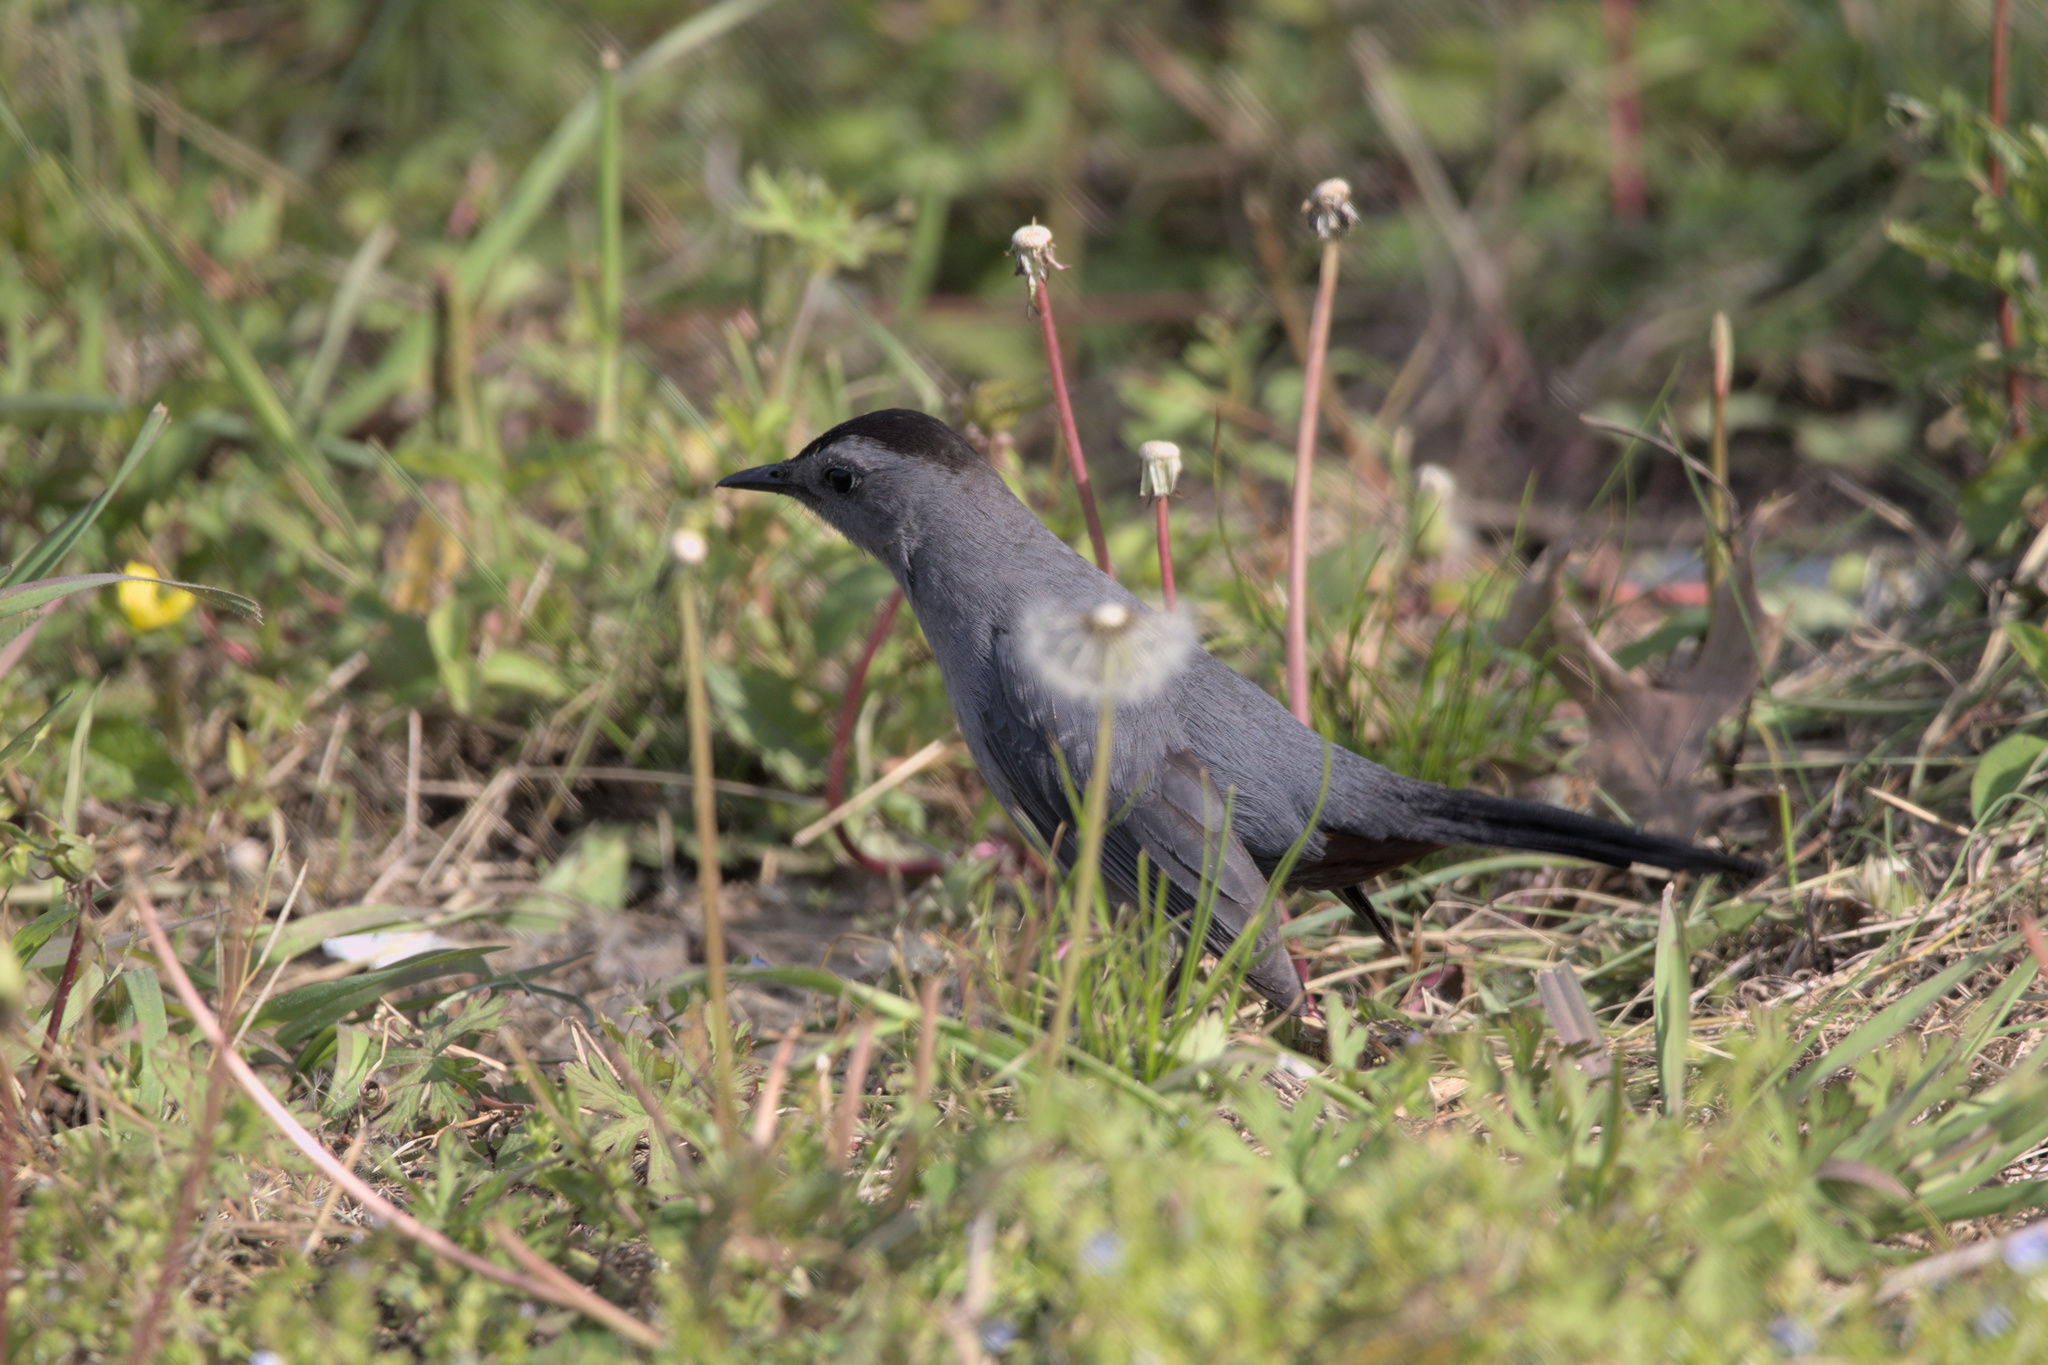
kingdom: Animalia
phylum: Chordata
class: Aves
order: Passeriformes
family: Mimidae
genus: Dumetella
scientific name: Dumetella carolinensis
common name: Gray catbird
